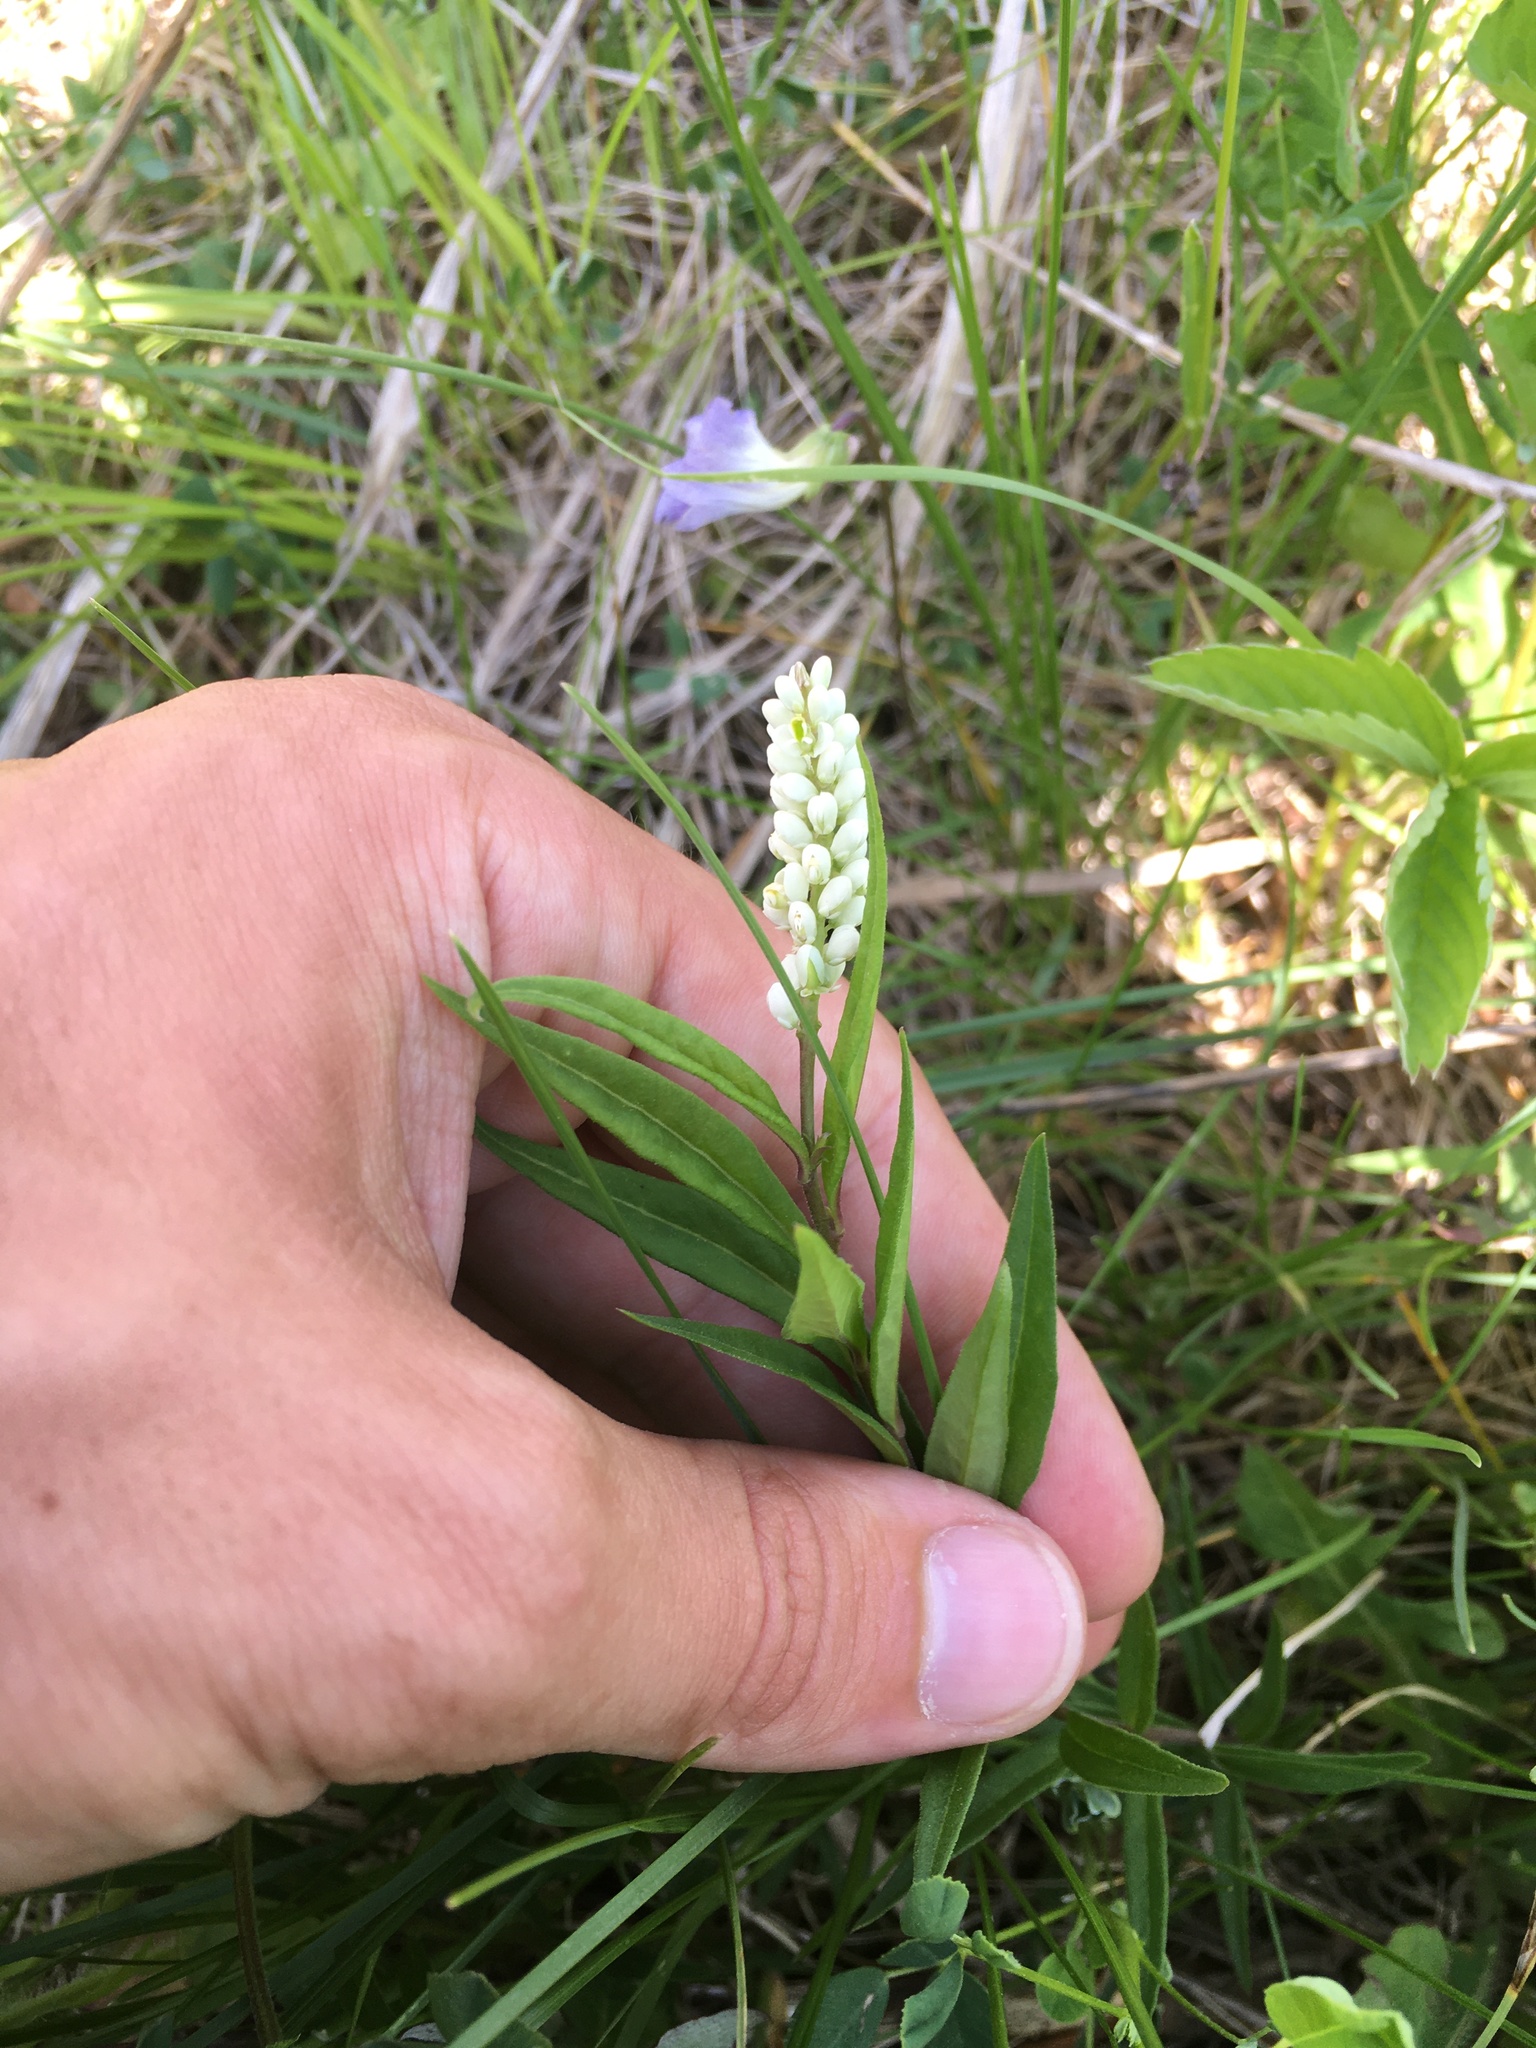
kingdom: Plantae
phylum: Tracheophyta
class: Magnoliopsida
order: Fabales
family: Polygalaceae
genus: Polygala
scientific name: Polygala senega
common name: Seneca snakeroot
